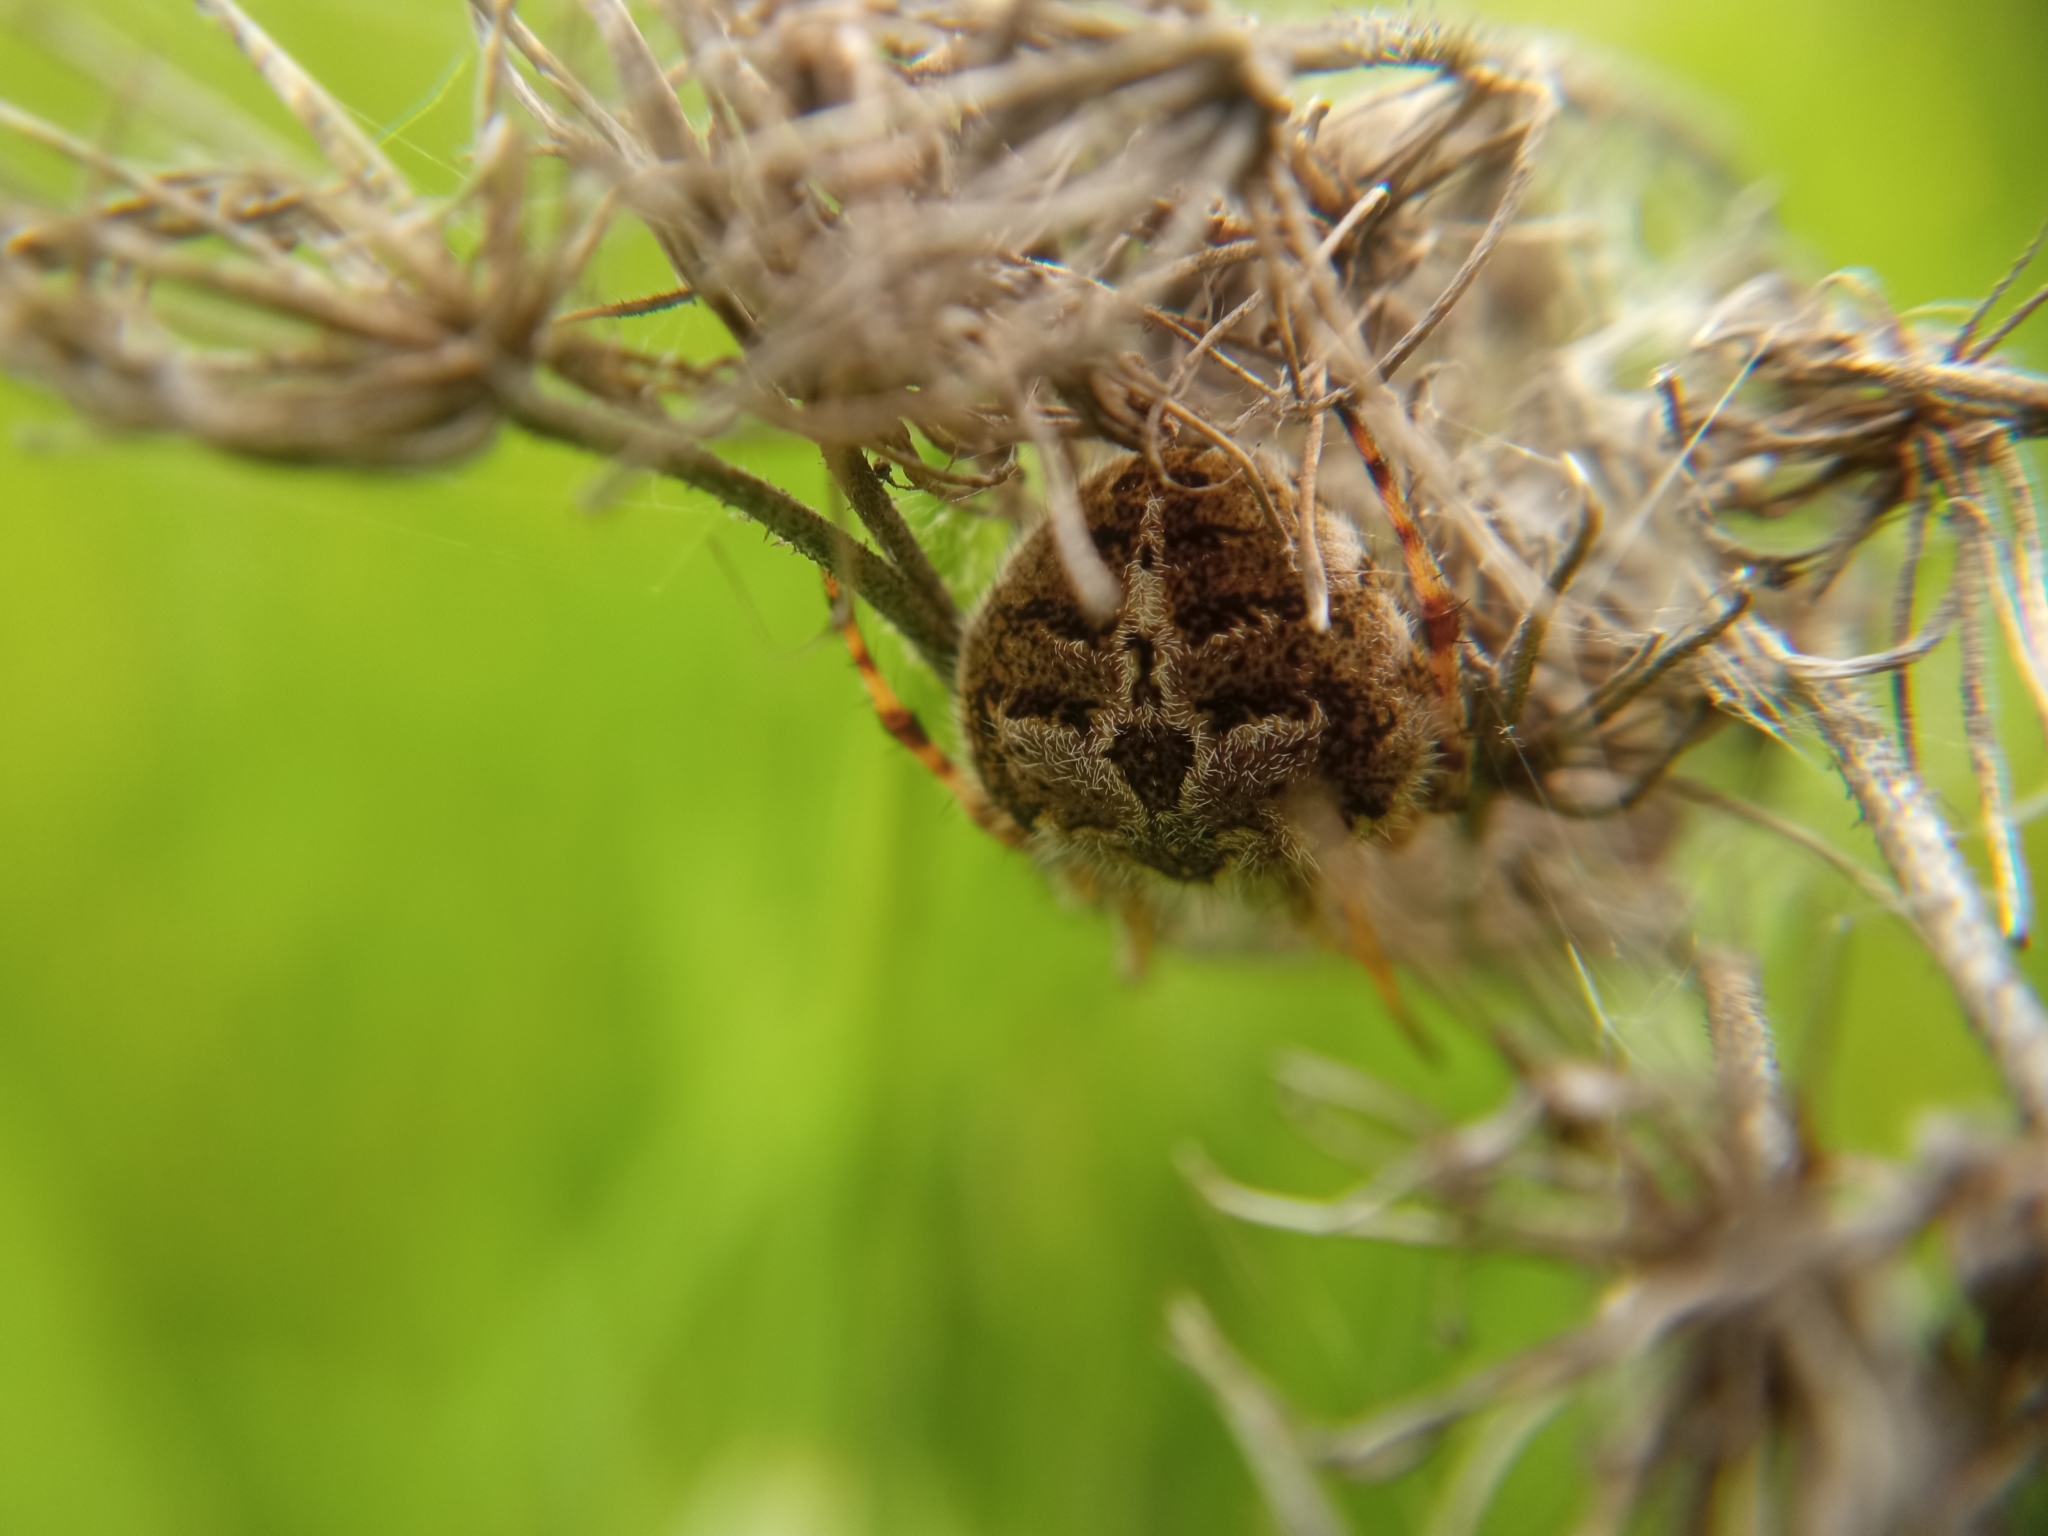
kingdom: Animalia
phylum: Arthropoda
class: Arachnida
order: Araneae
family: Araneidae
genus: Agalenatea
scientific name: Agalenatea redii
